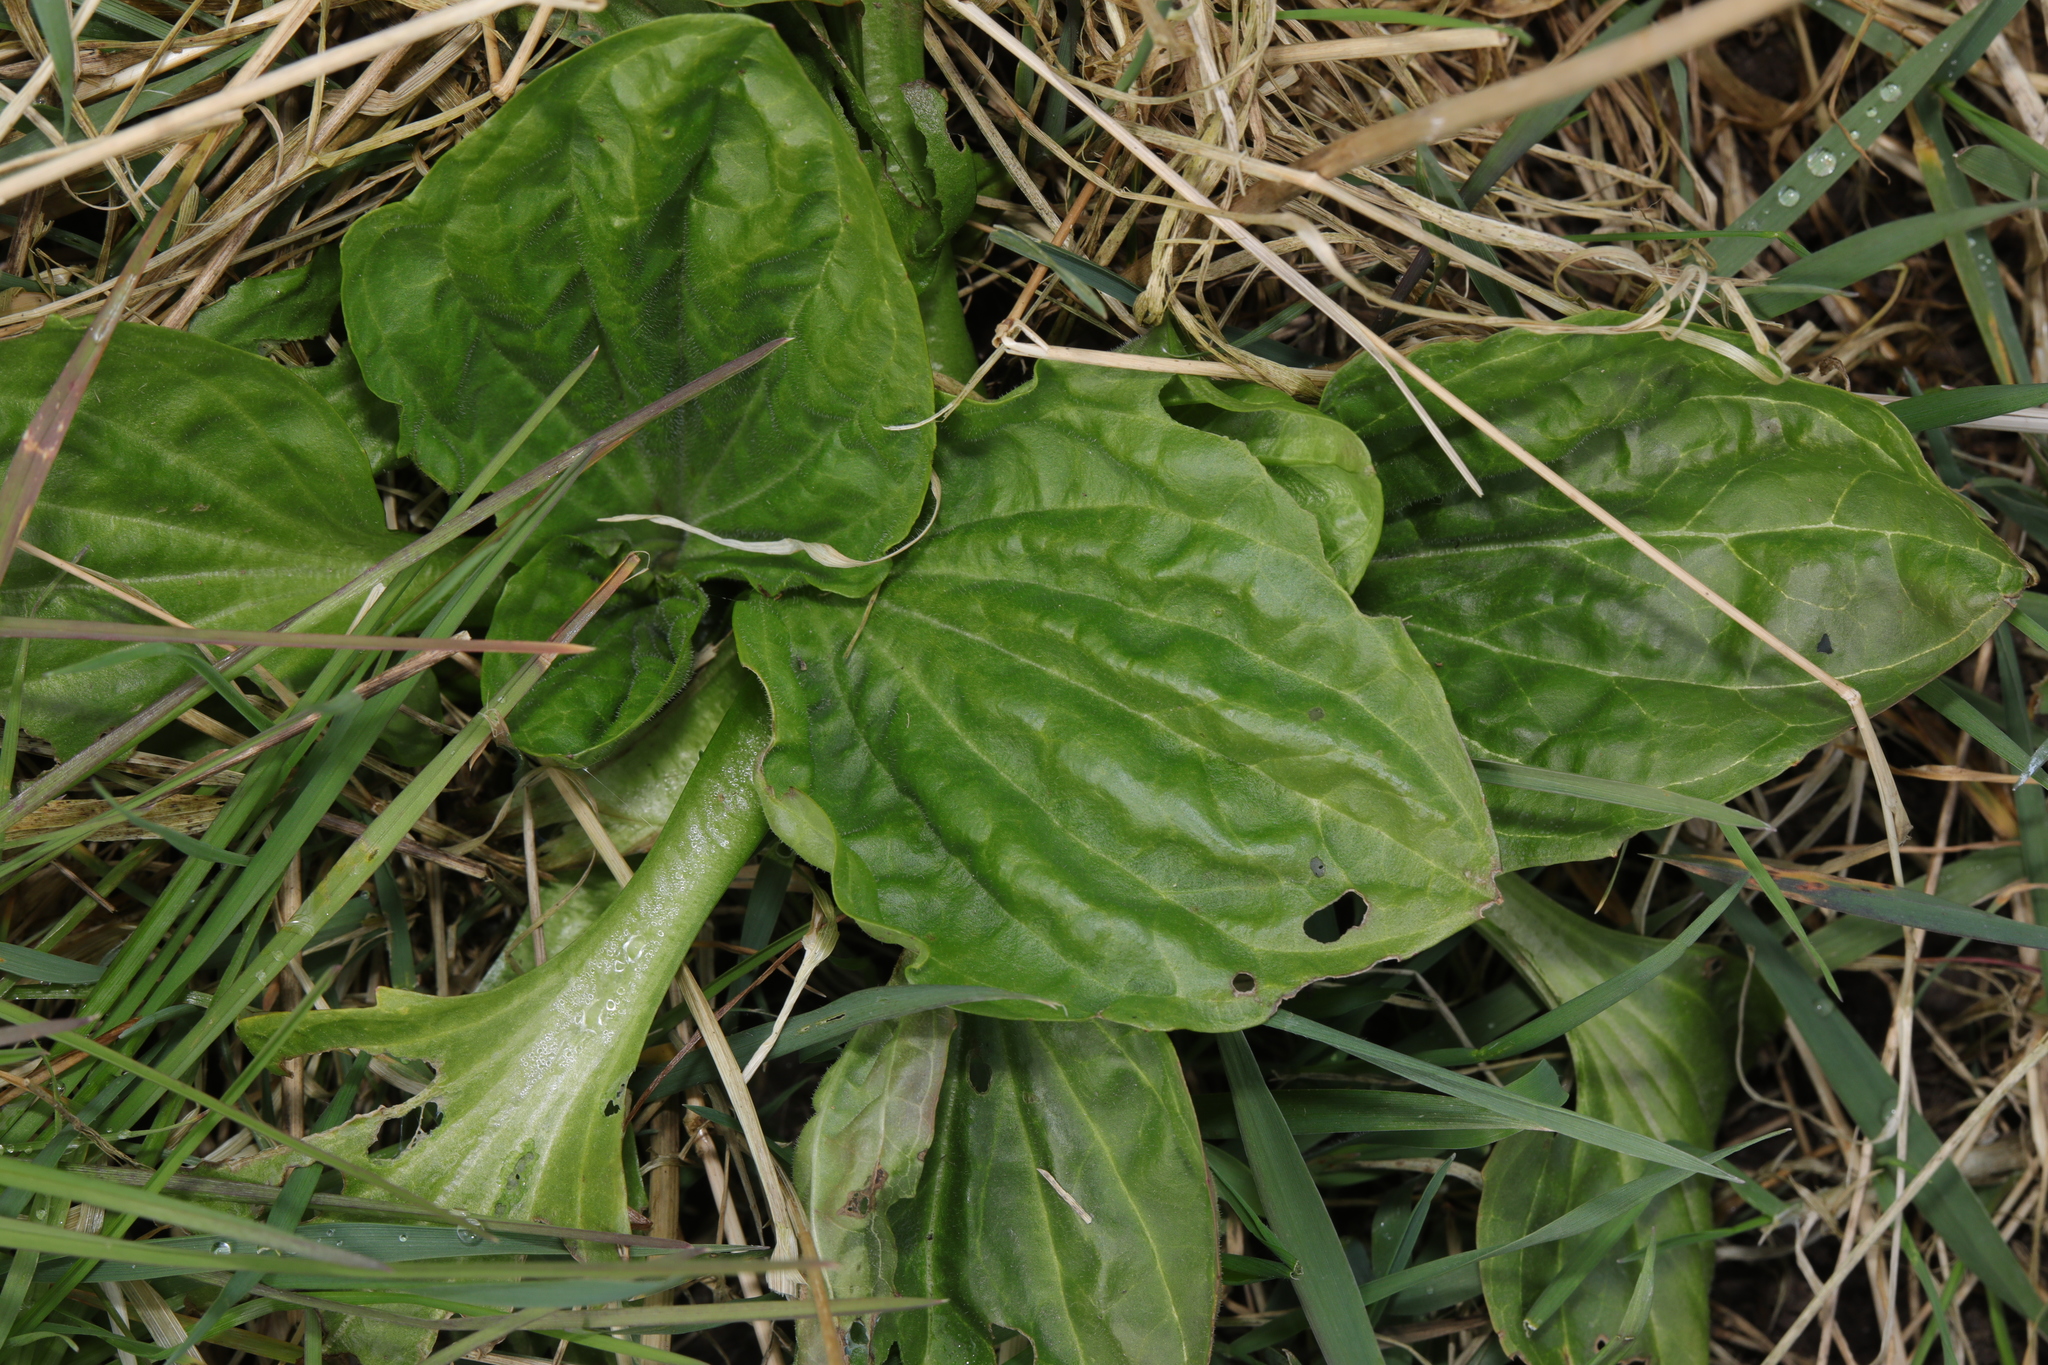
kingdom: Plantae
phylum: Tracheophyta
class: Magnoliopsida
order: Lamiales
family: Plantaginaceae
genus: Plantago
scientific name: Plantago major
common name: Common plantain
